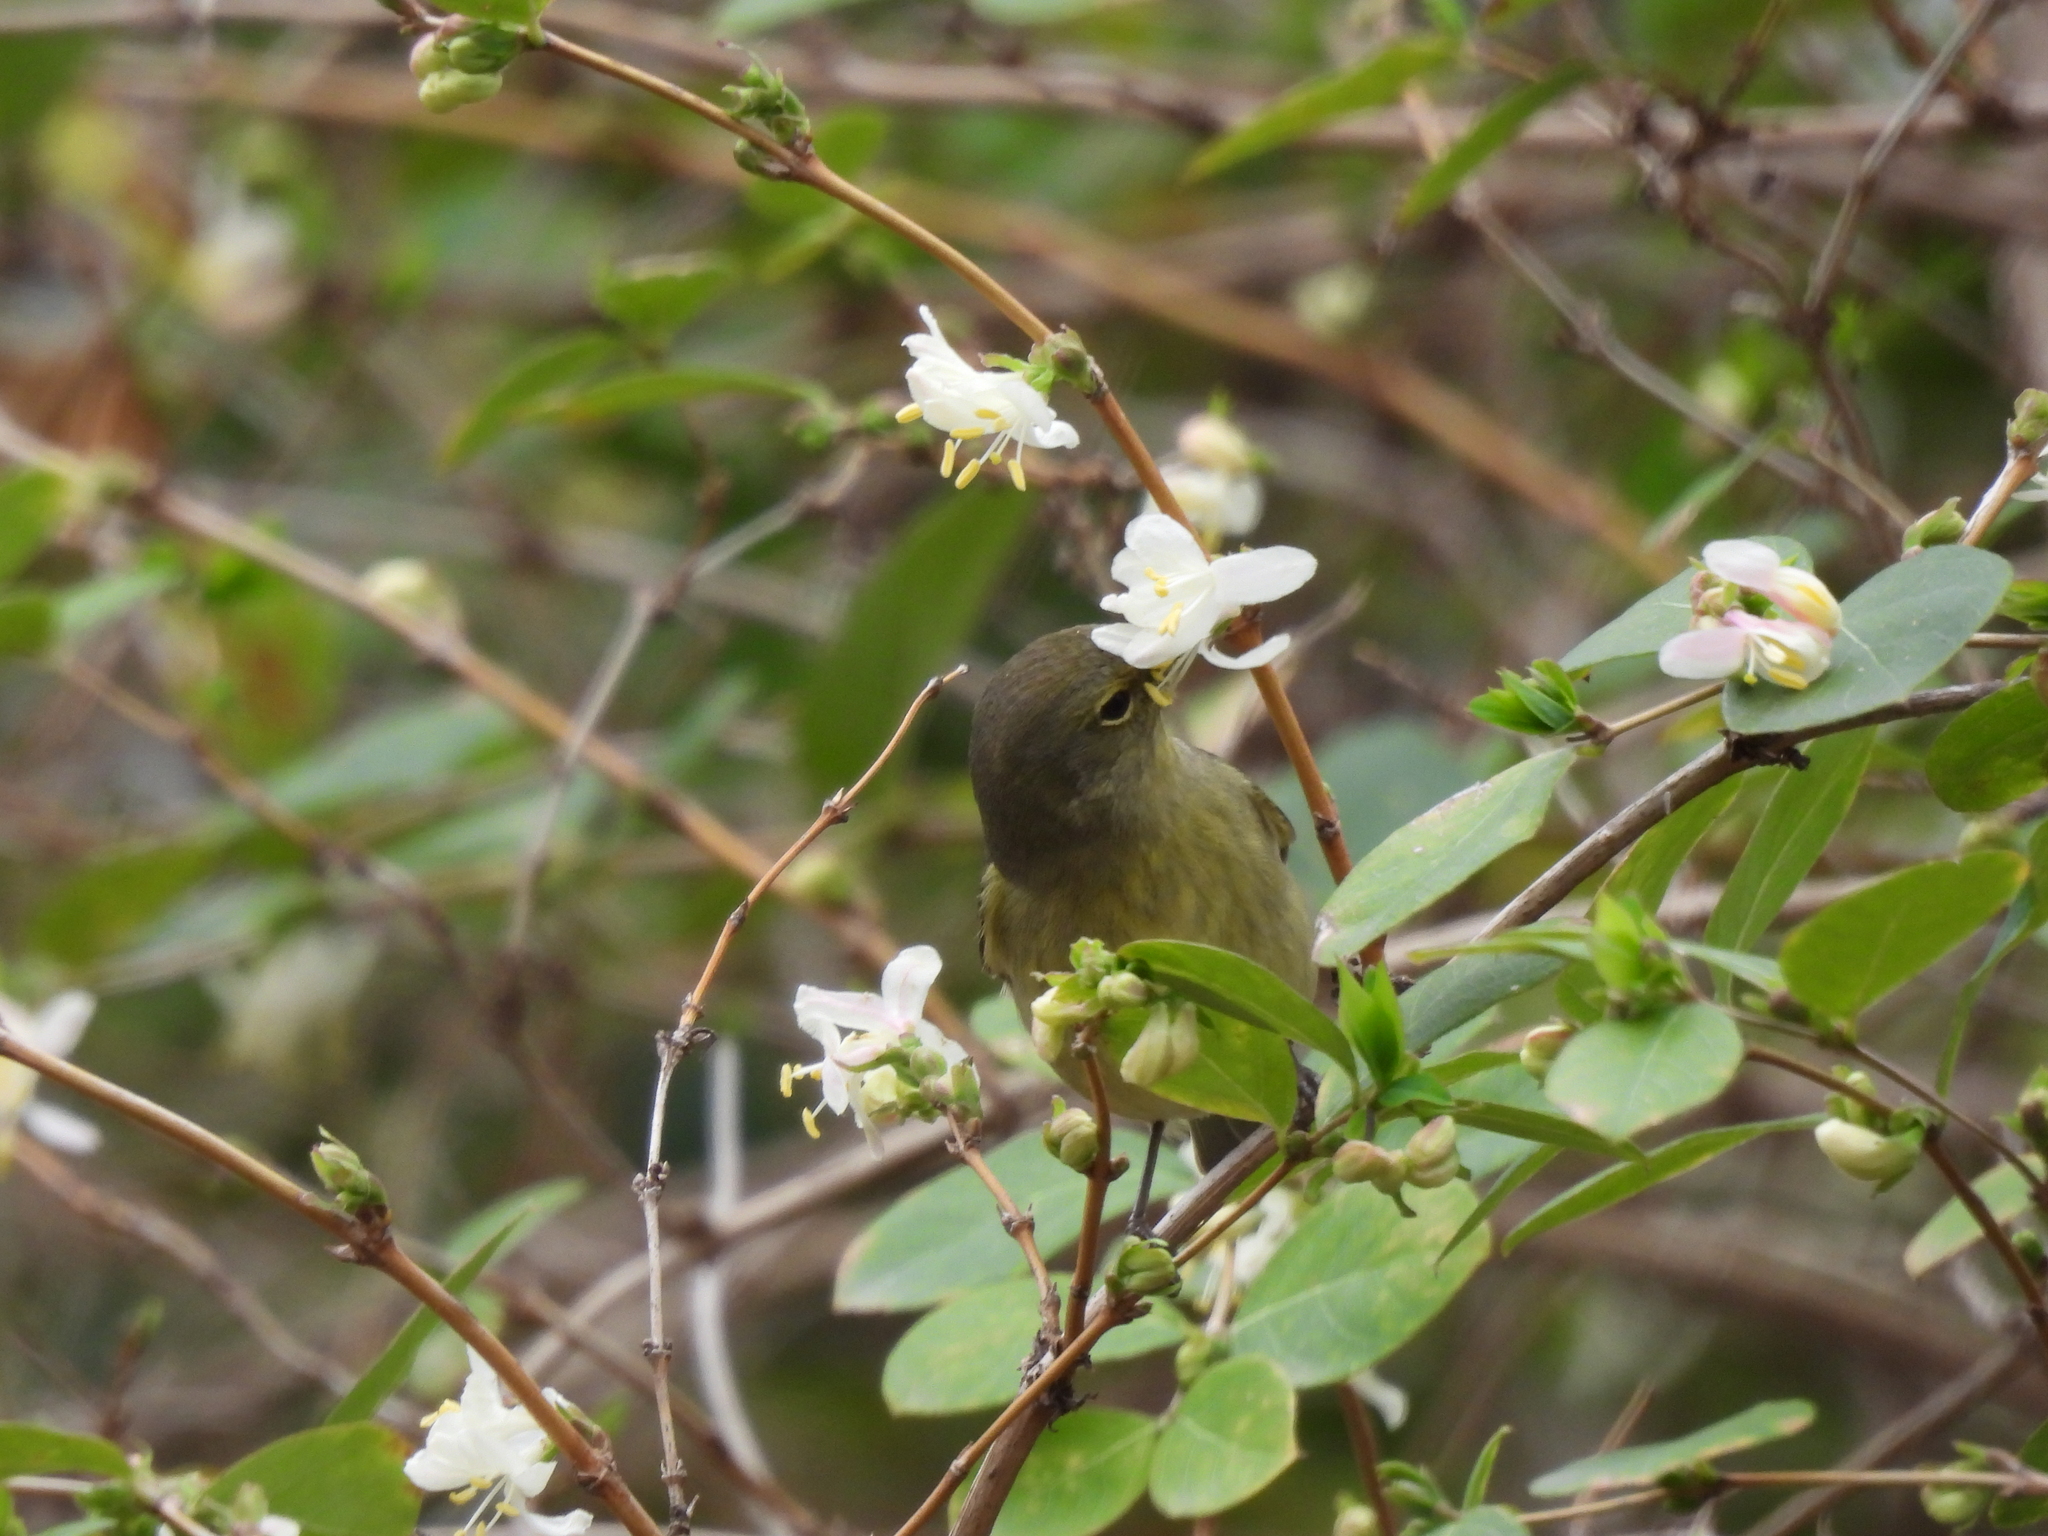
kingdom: Animalia
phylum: Chordata
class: Aves
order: Passeriformes
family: Parulidae
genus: Leiothlypis
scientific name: Leiothlypis celata
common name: Orange-crowned warbler
